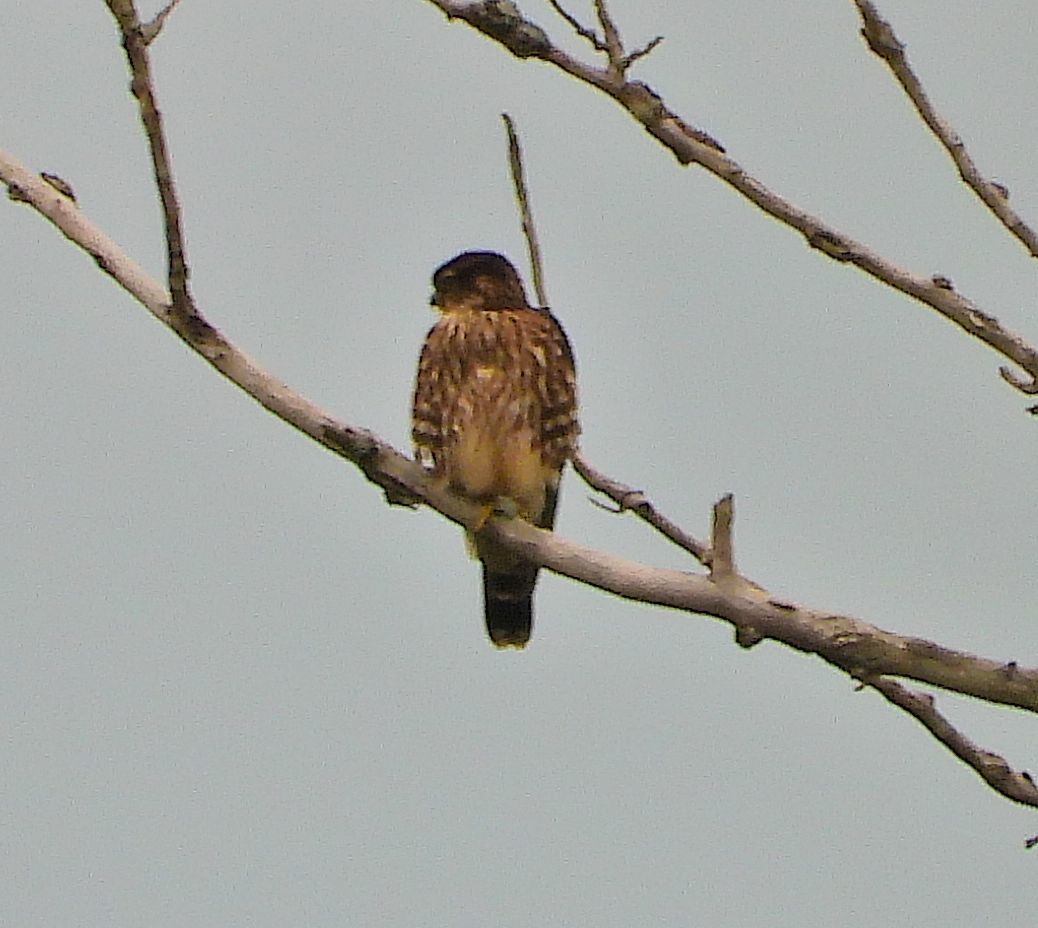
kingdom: Animalia
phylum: Chordata
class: Aves
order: Falconiformes
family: Falconidae
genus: Falco
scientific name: Falco columbarius
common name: Merlin
